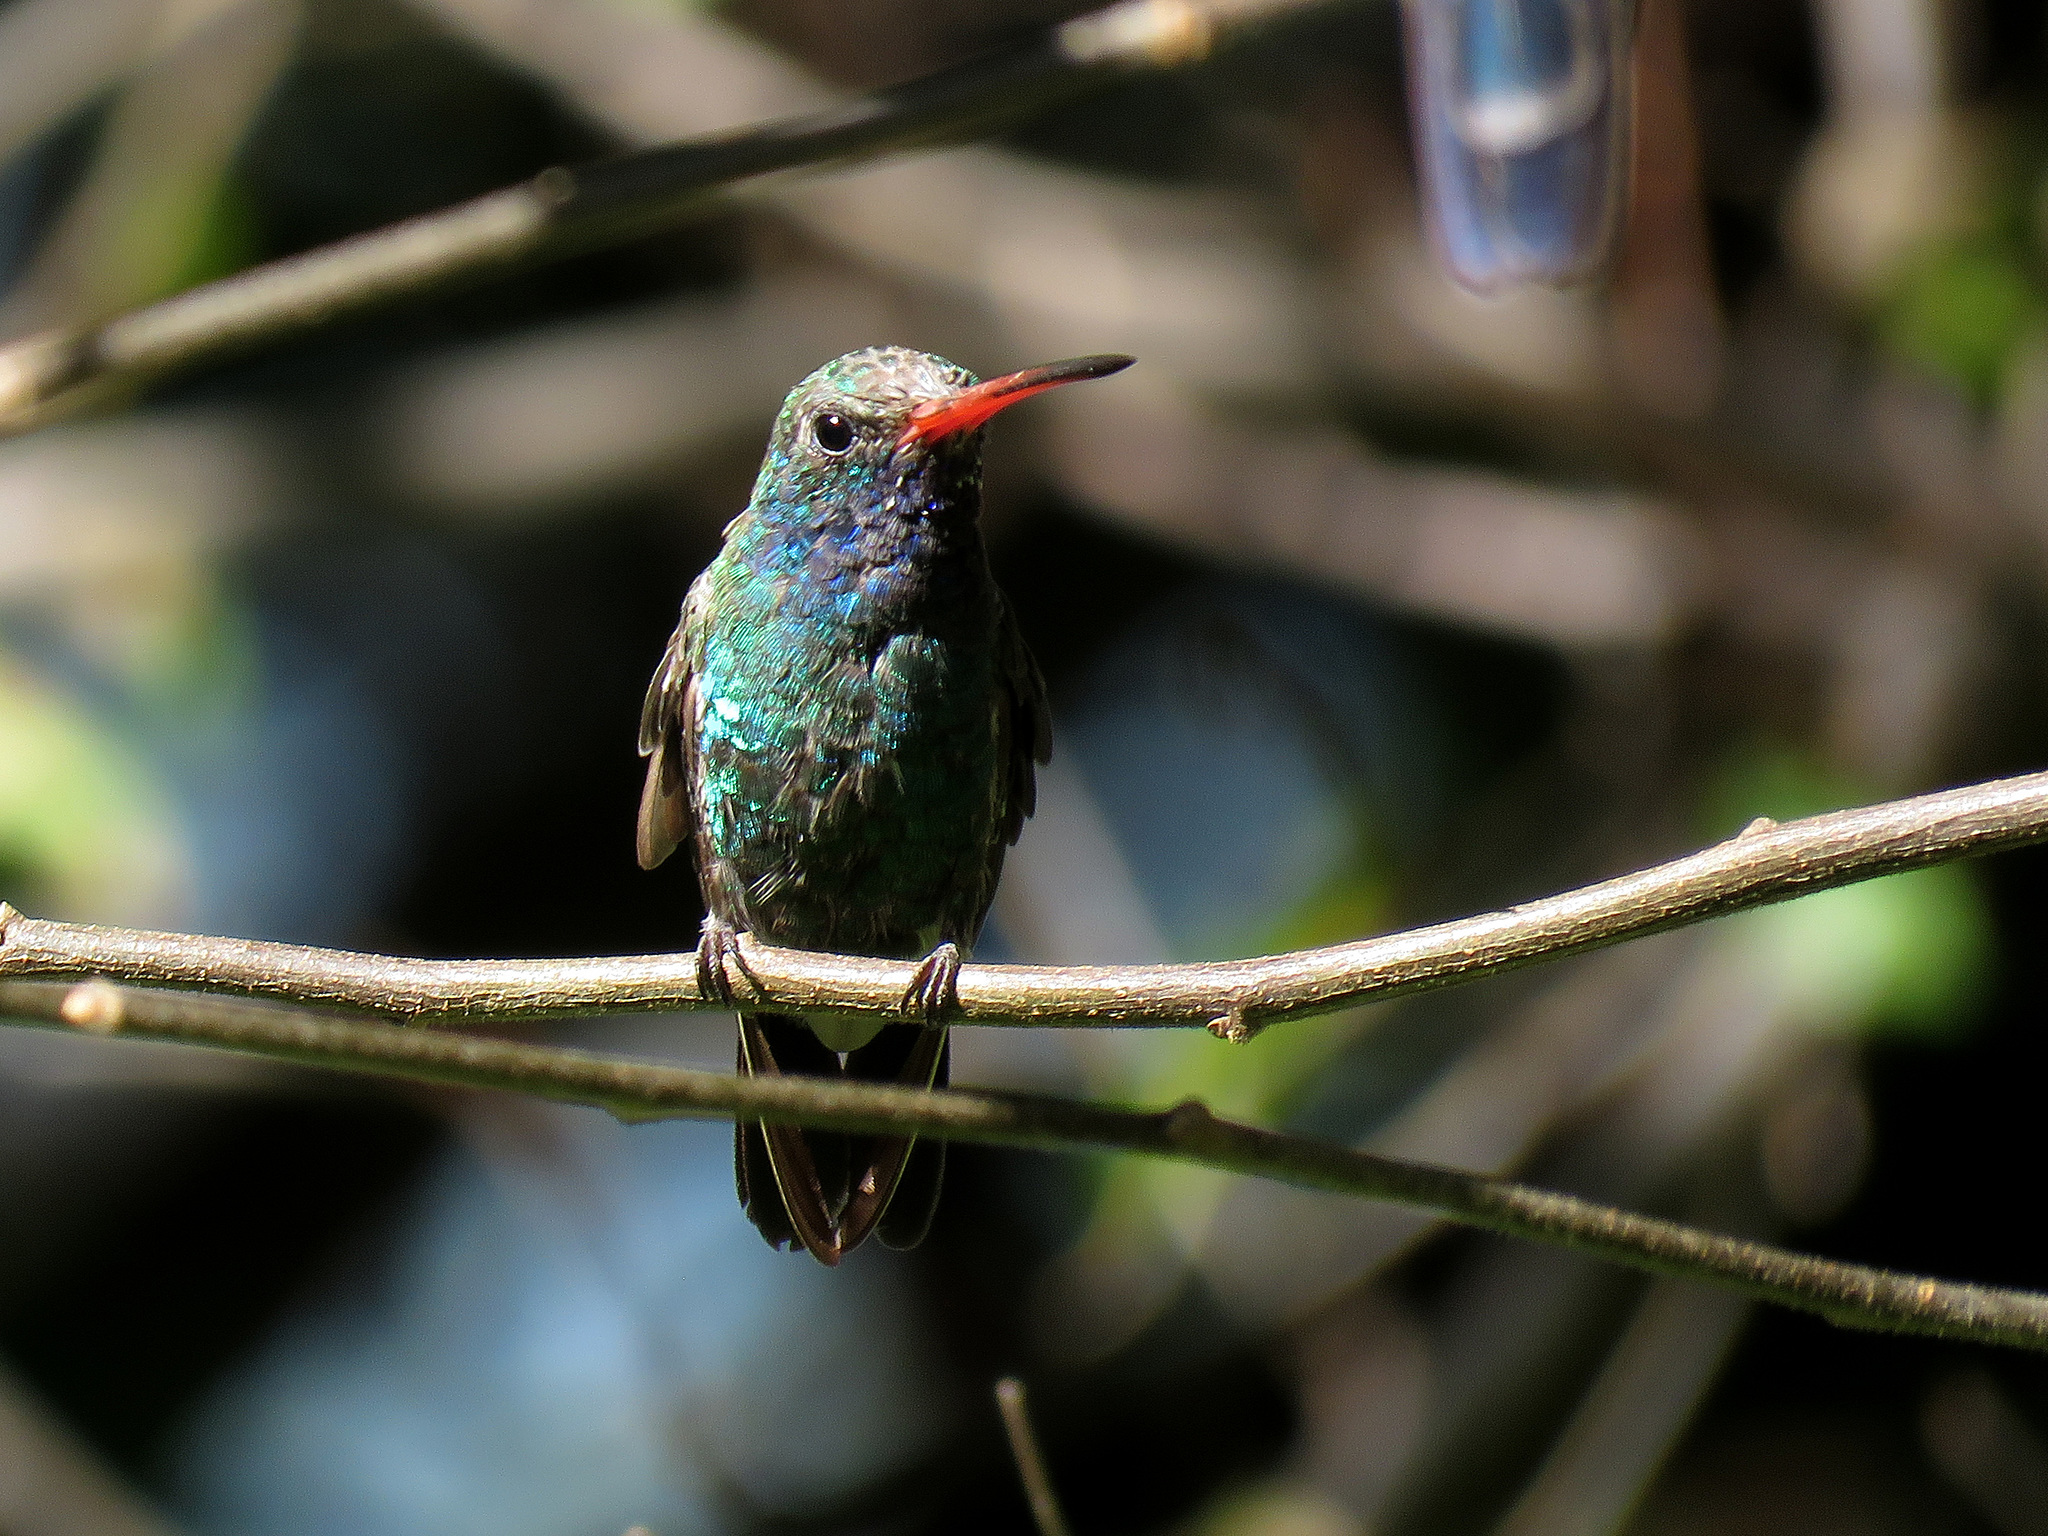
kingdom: Animalia
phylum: Chordata
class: Aves
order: Apodiformes
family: Trochilidae
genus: Cynanthus
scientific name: Cynanthus latirostris
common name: Broad-billed hummingbird
